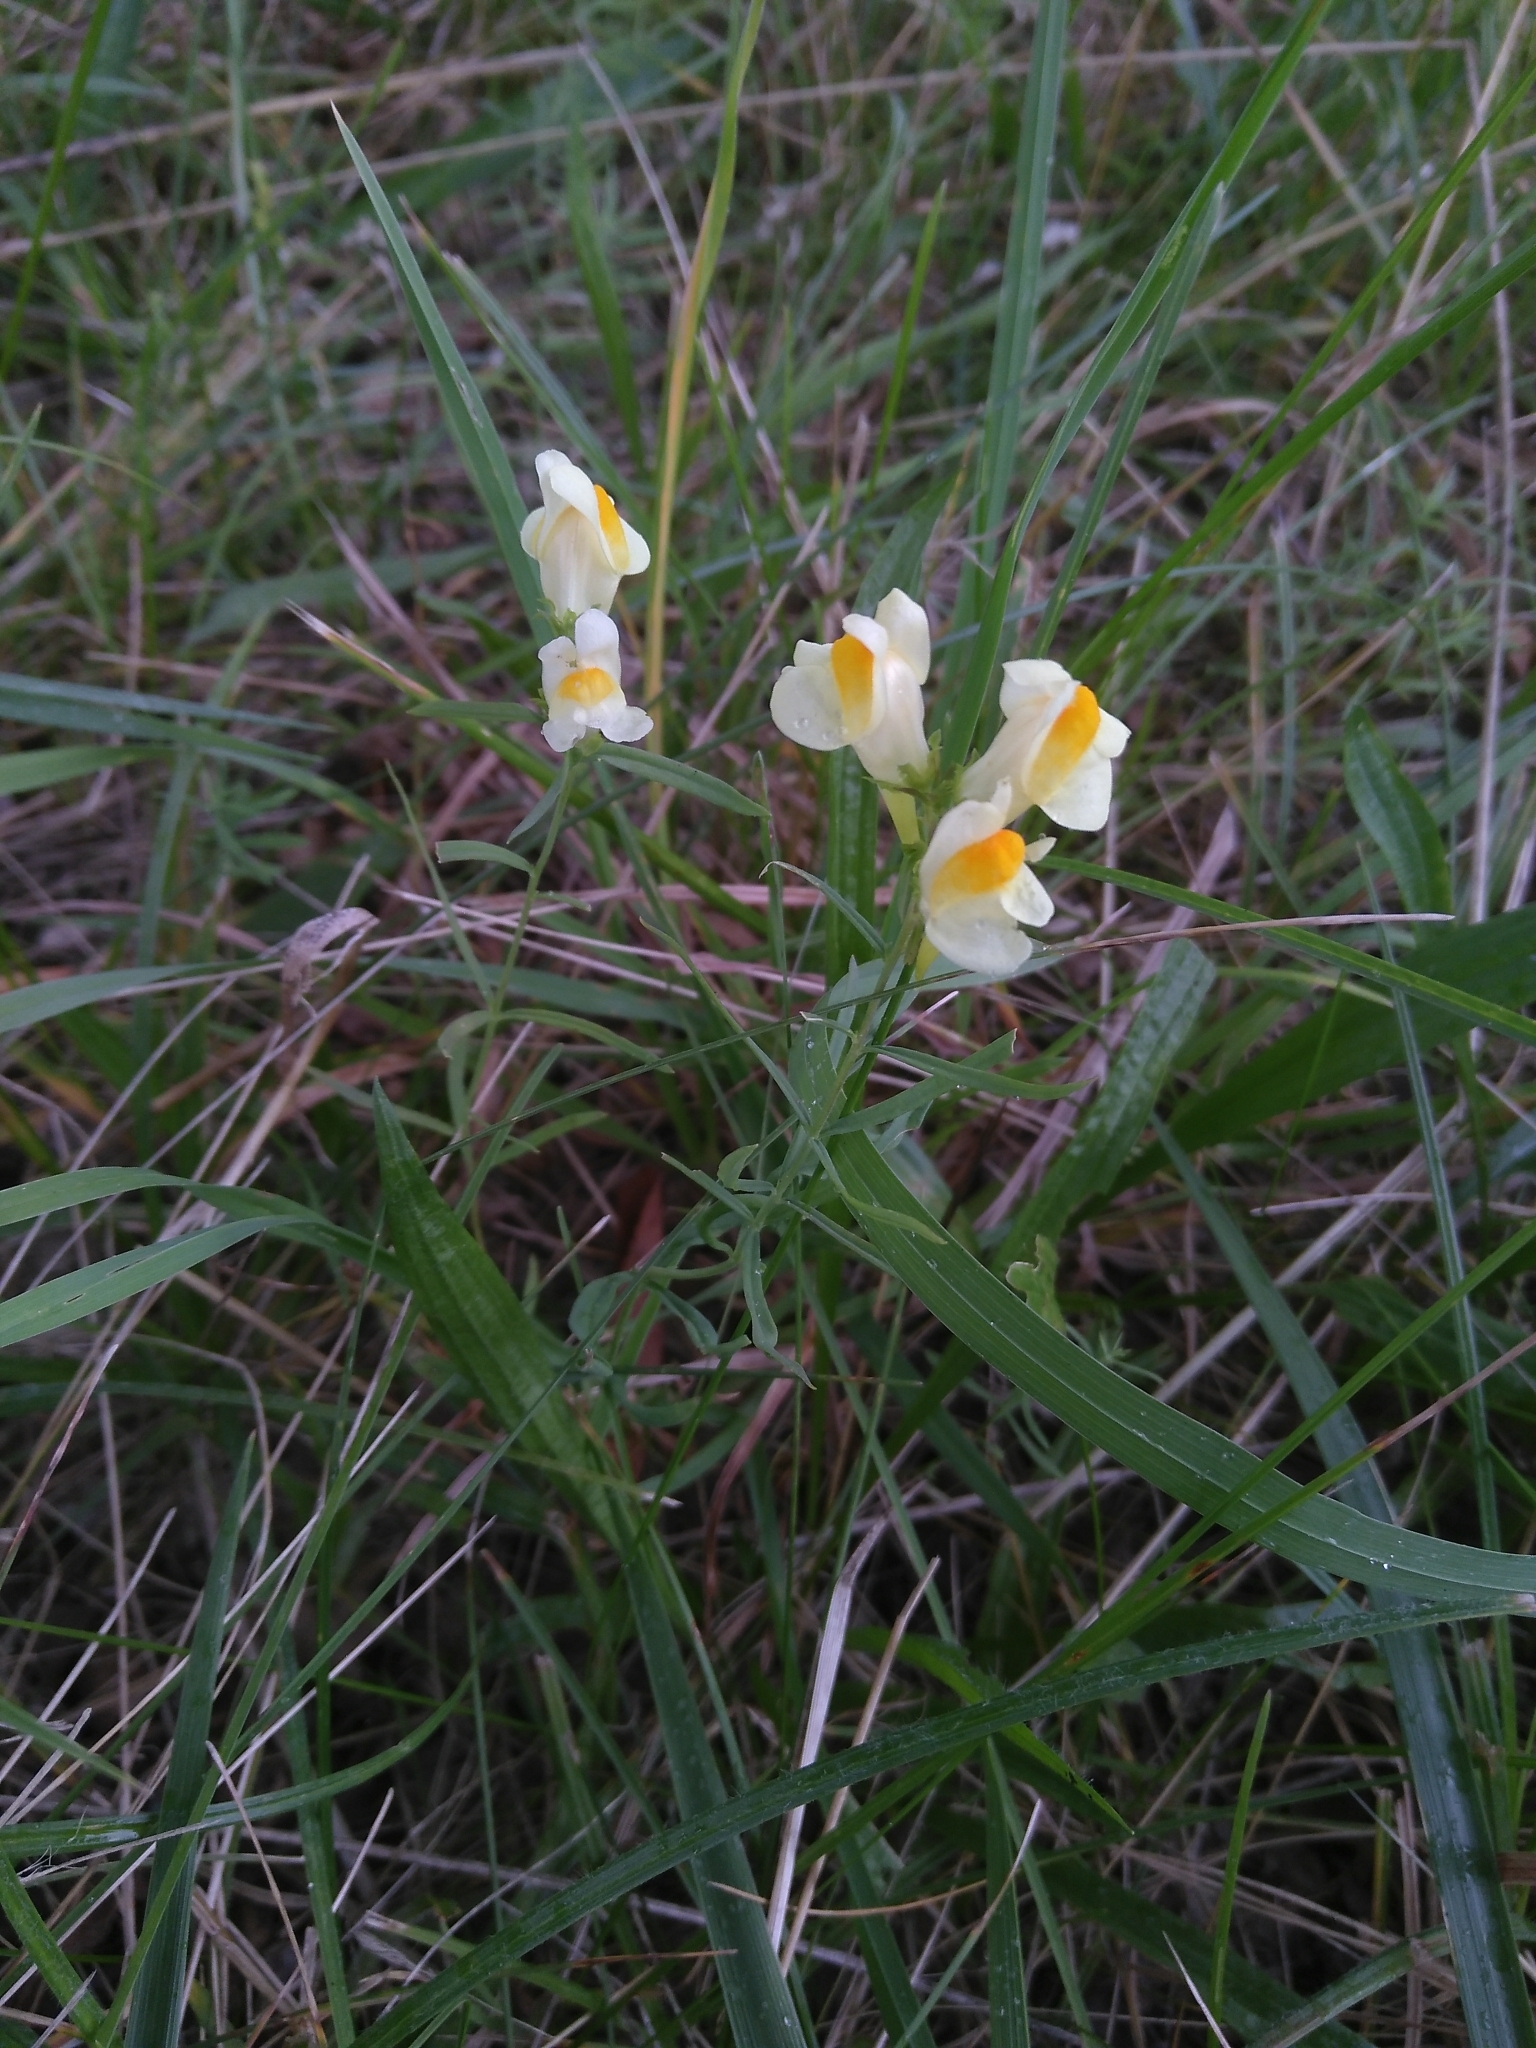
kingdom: Plantae
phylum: Tracheophyta
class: Magnoliopsida
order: Lamiales
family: Plantaginaceae
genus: Linaria
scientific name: Linaria vulgaris
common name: Butter and eggs
